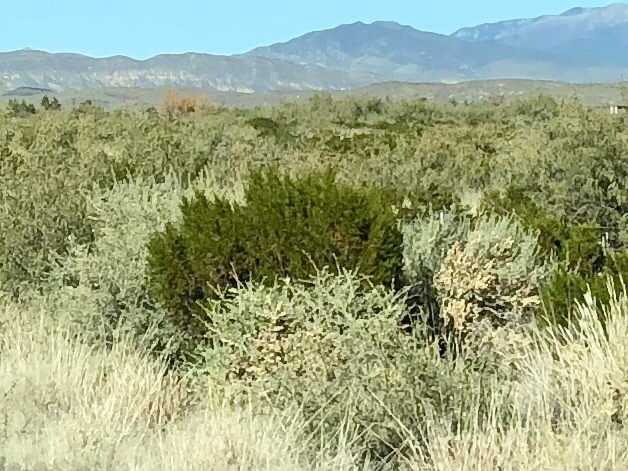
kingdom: Plantae
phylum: Tracheophyta
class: Magnoliopsida
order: Zygophyllales
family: Zygophyllaceae
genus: Larrea
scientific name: Larrea tridentata
